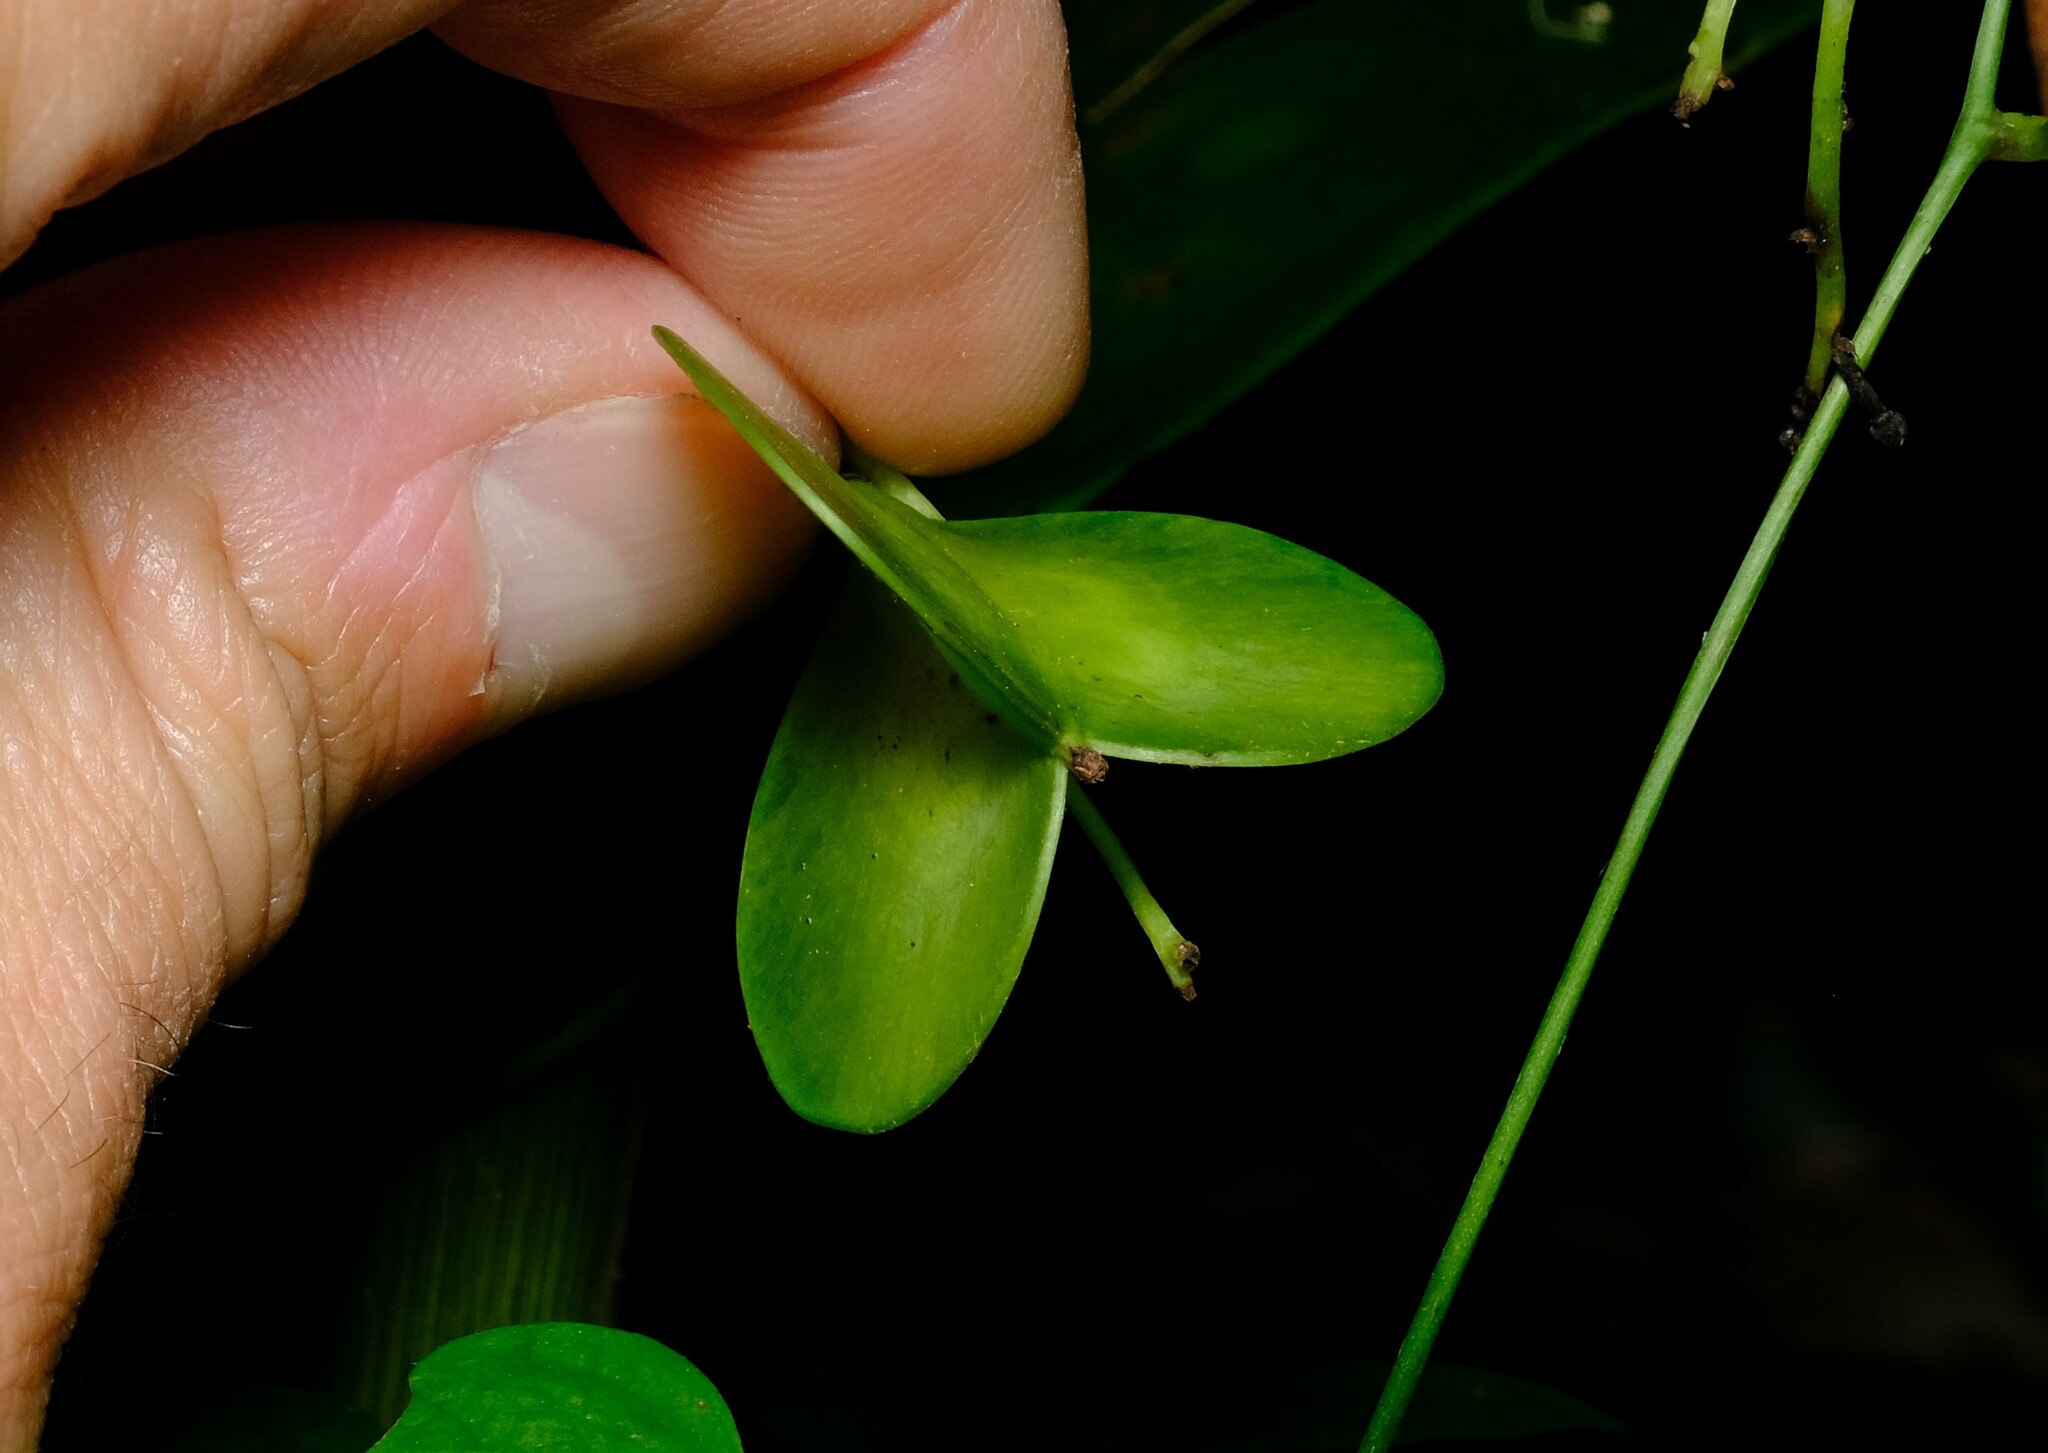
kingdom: Plantae
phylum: Tracheophyta
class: Liliopsida
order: Dioscoreales
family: Dioscoreaceae
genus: Dioscorea
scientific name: Dioscorea transversa
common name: Long yam
